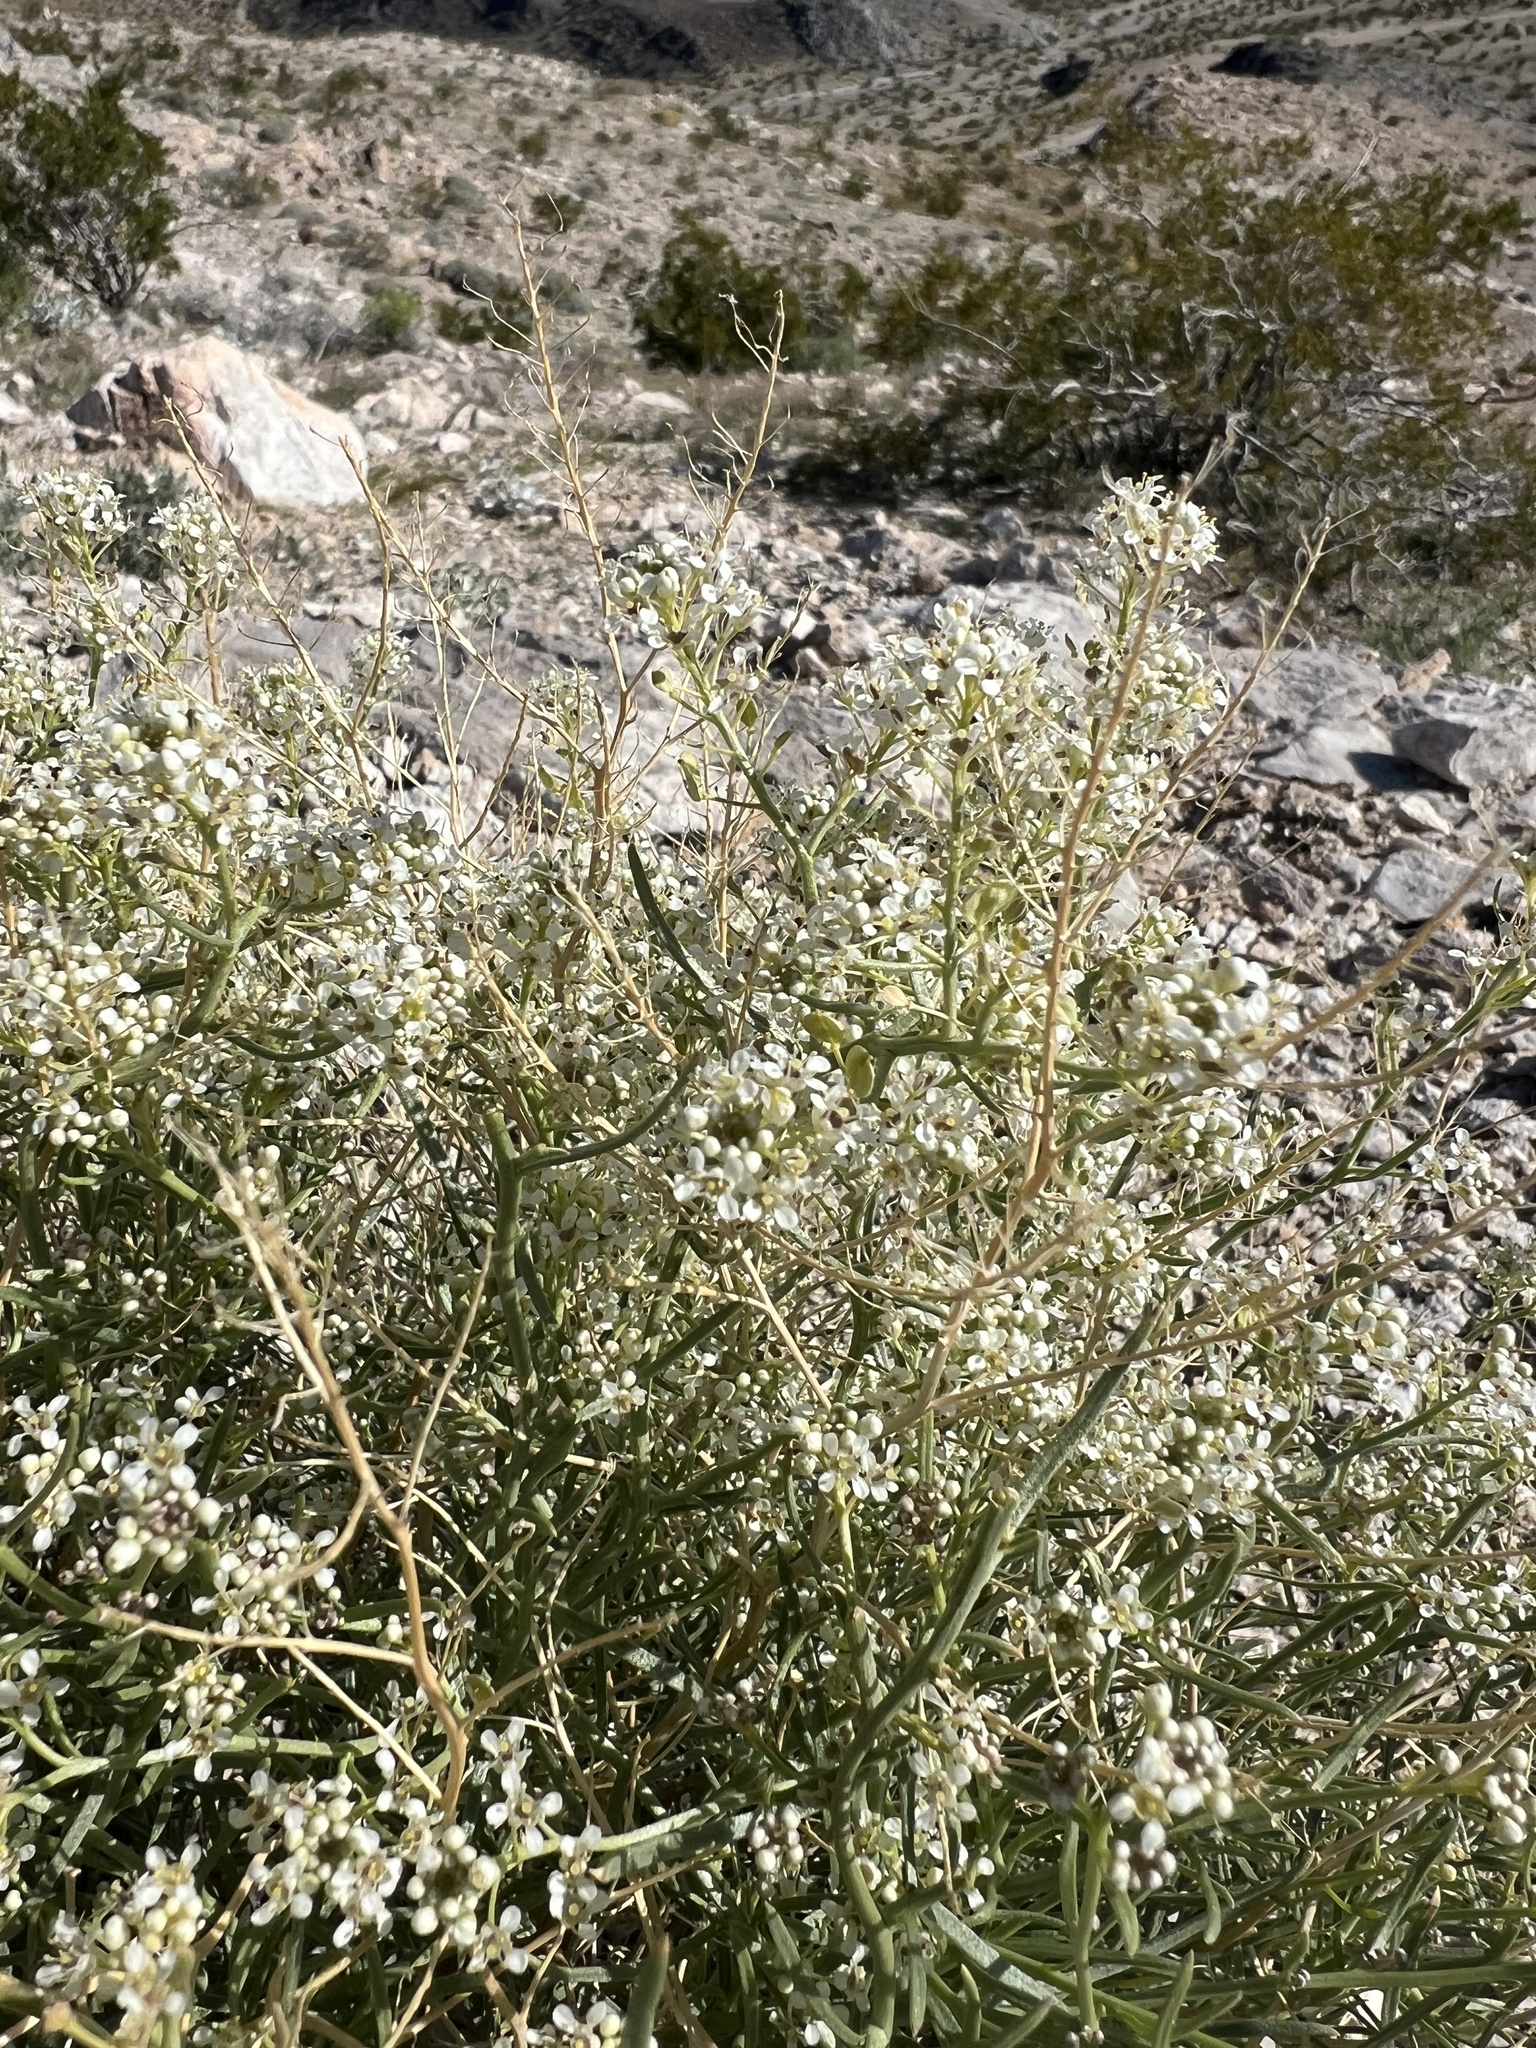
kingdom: Plantae
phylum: Tracheophyta
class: Magnoliopsida
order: Brassicales
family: Brassicaceae
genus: Lepidium
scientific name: Lepidium fremontii
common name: Fremont's pepperwort
